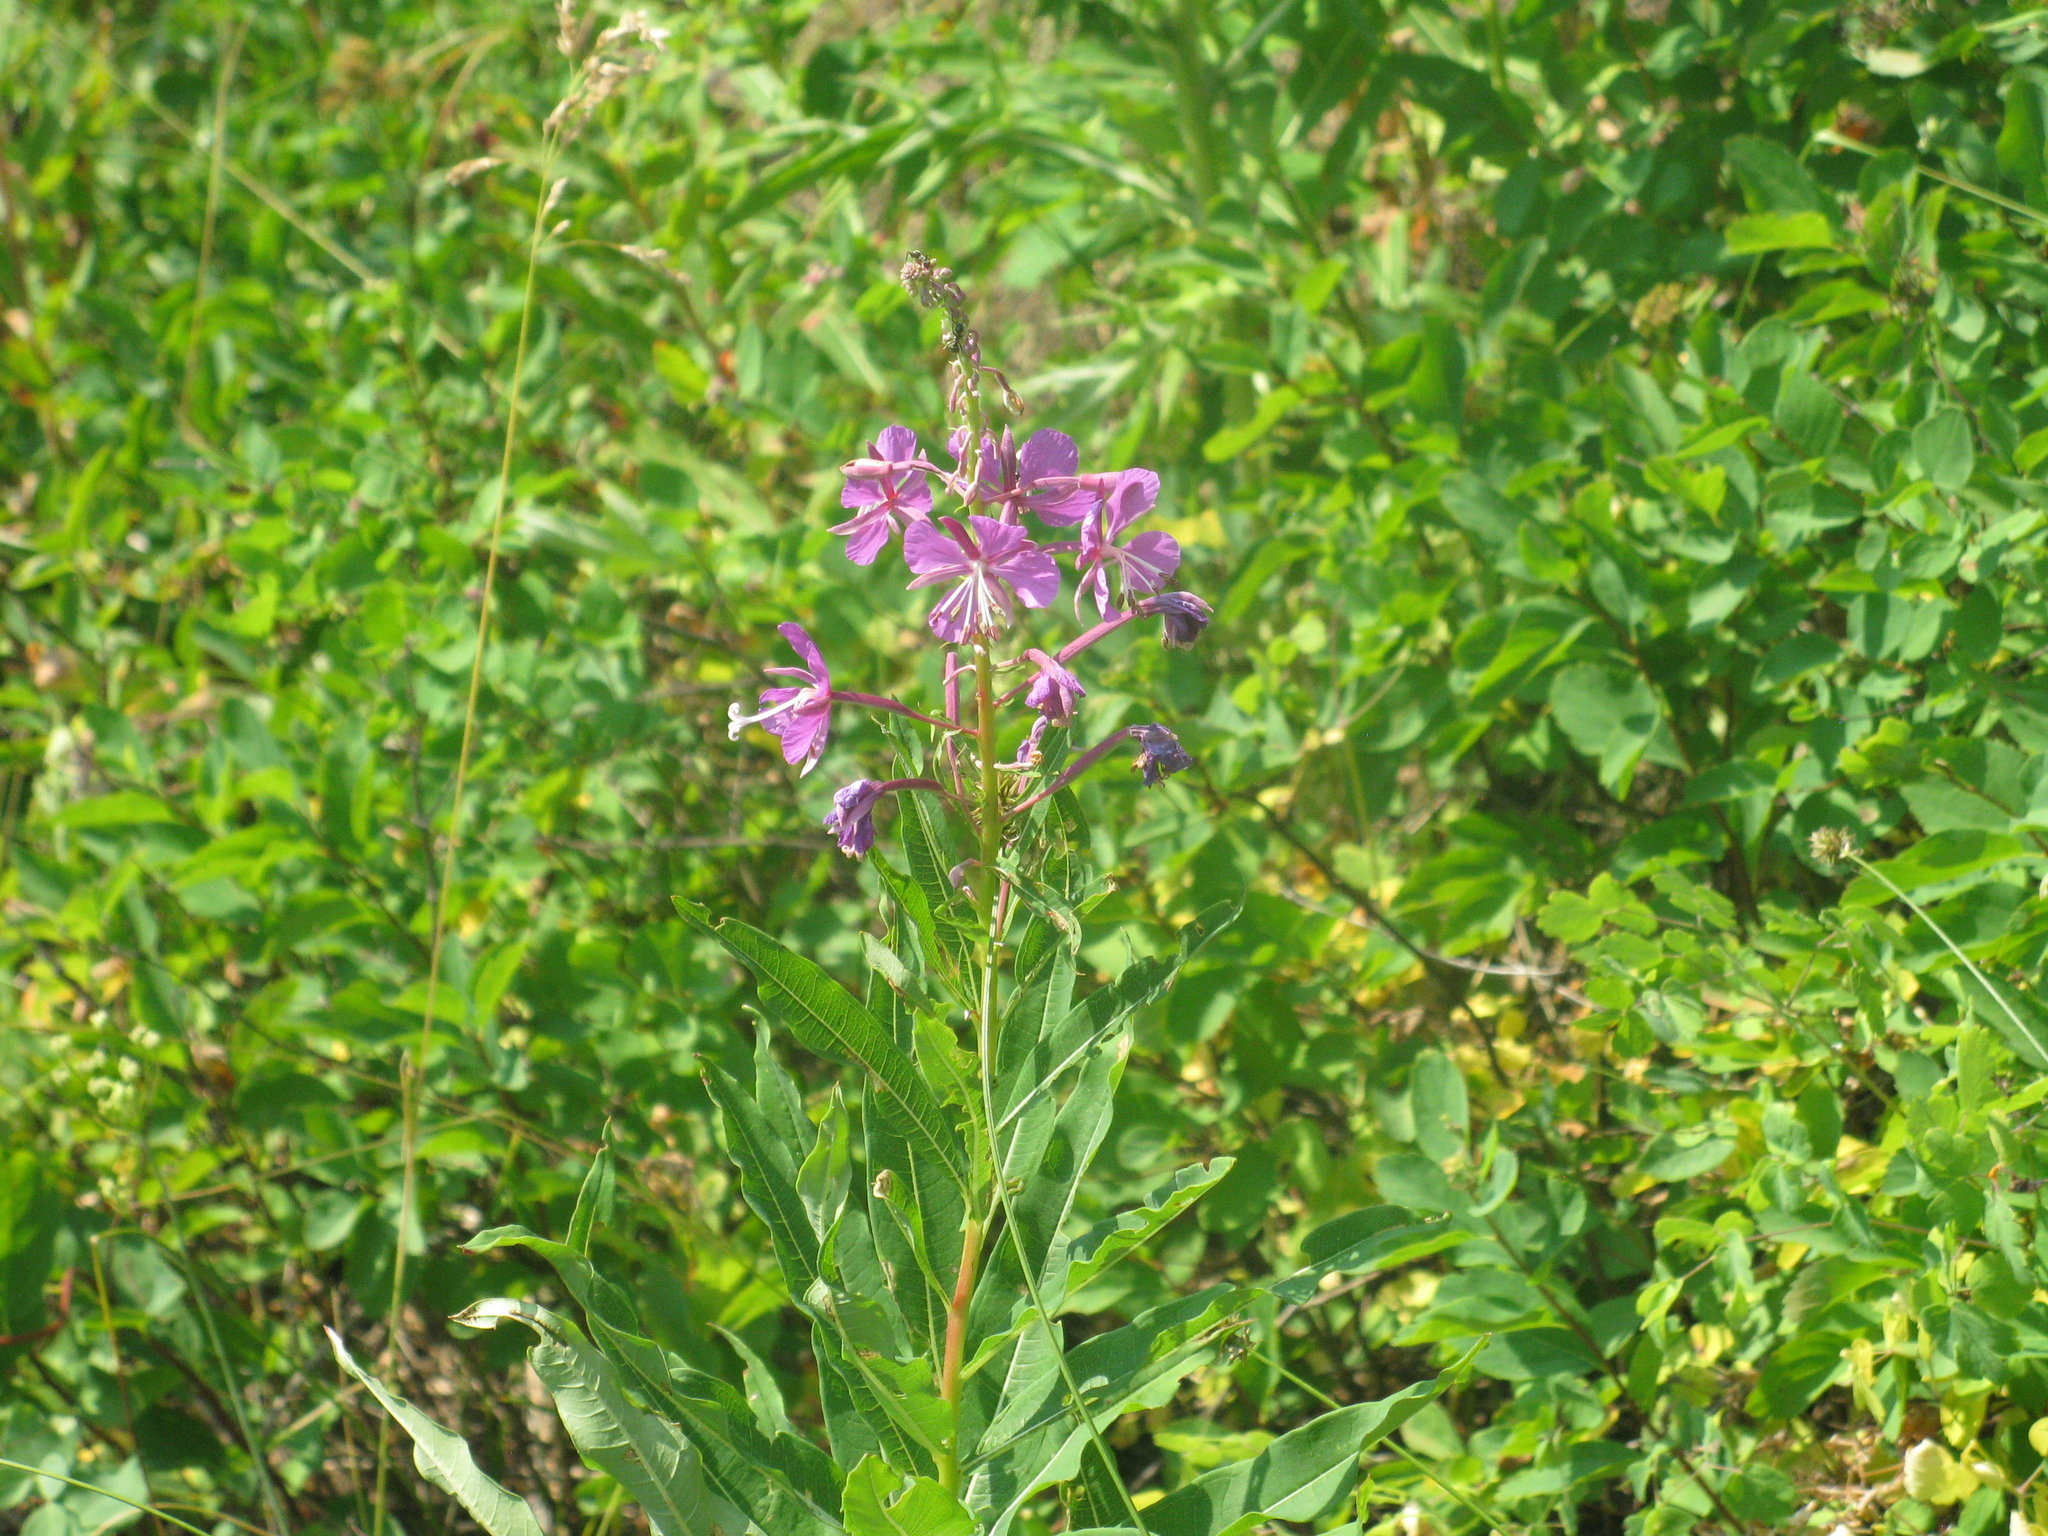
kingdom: Plantae
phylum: Tracheophyta
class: Magnoliopsida
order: Myrtales
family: Onagraceae
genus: Chamaenerion
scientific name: Chamaenerion angustifolium
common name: Fireweed
